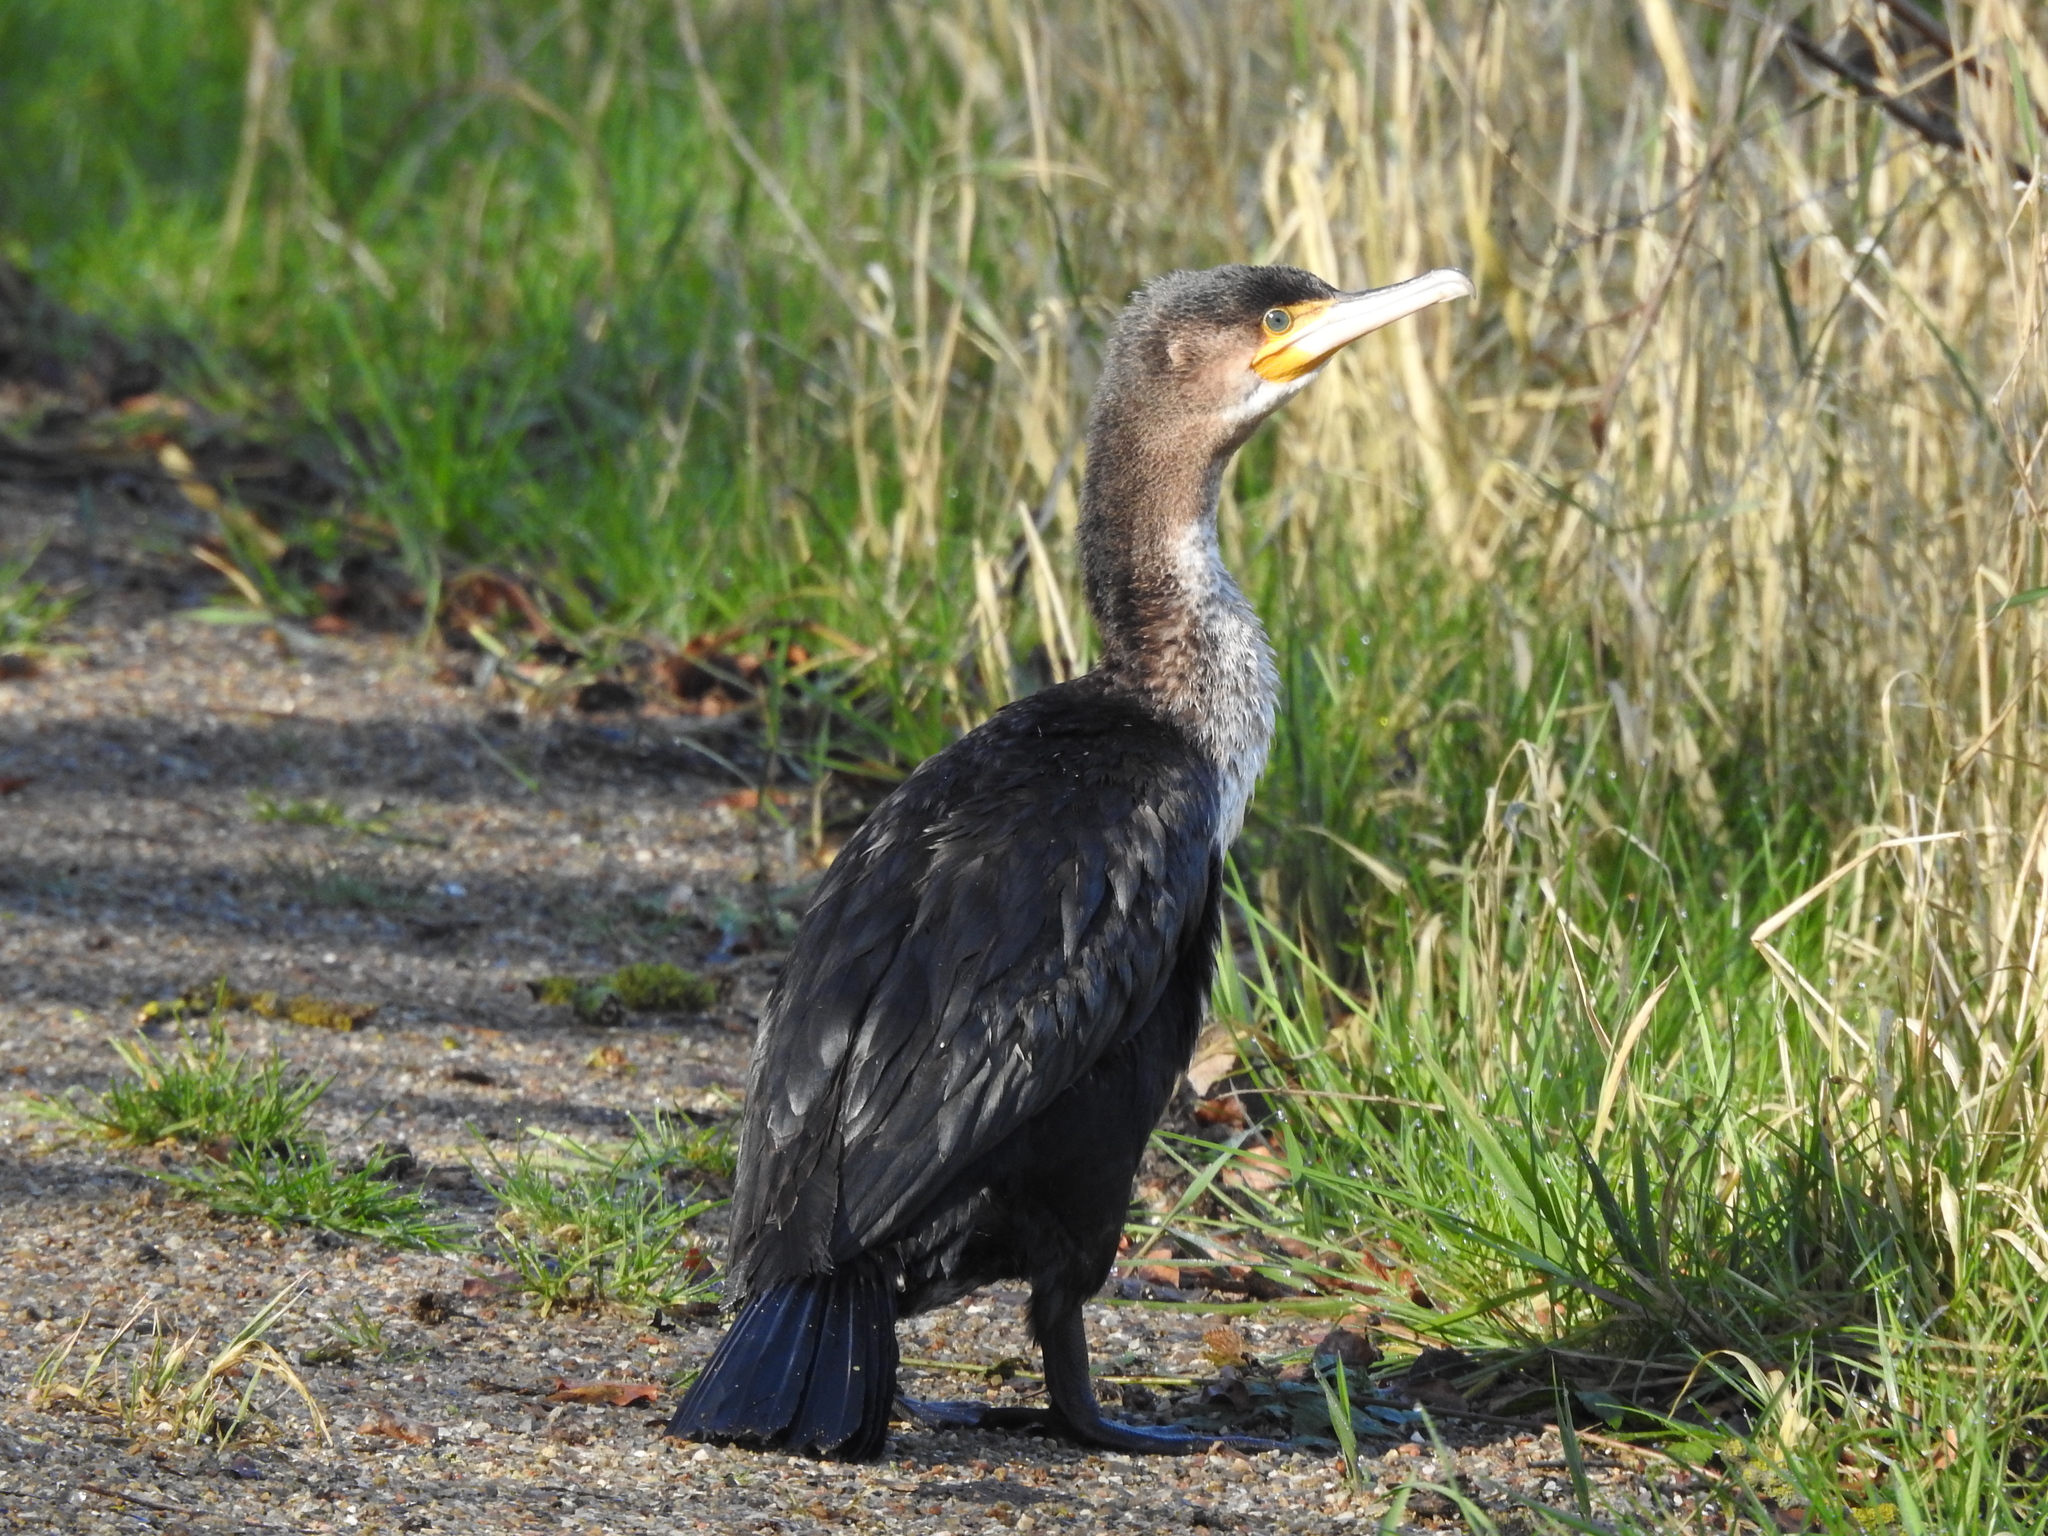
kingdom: Animalia
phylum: Chordata
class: Aves
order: Suliformes
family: Phalacrocoracidae
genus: Phalacrocorax
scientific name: Phalacrocorax carbo
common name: Great cormorant
